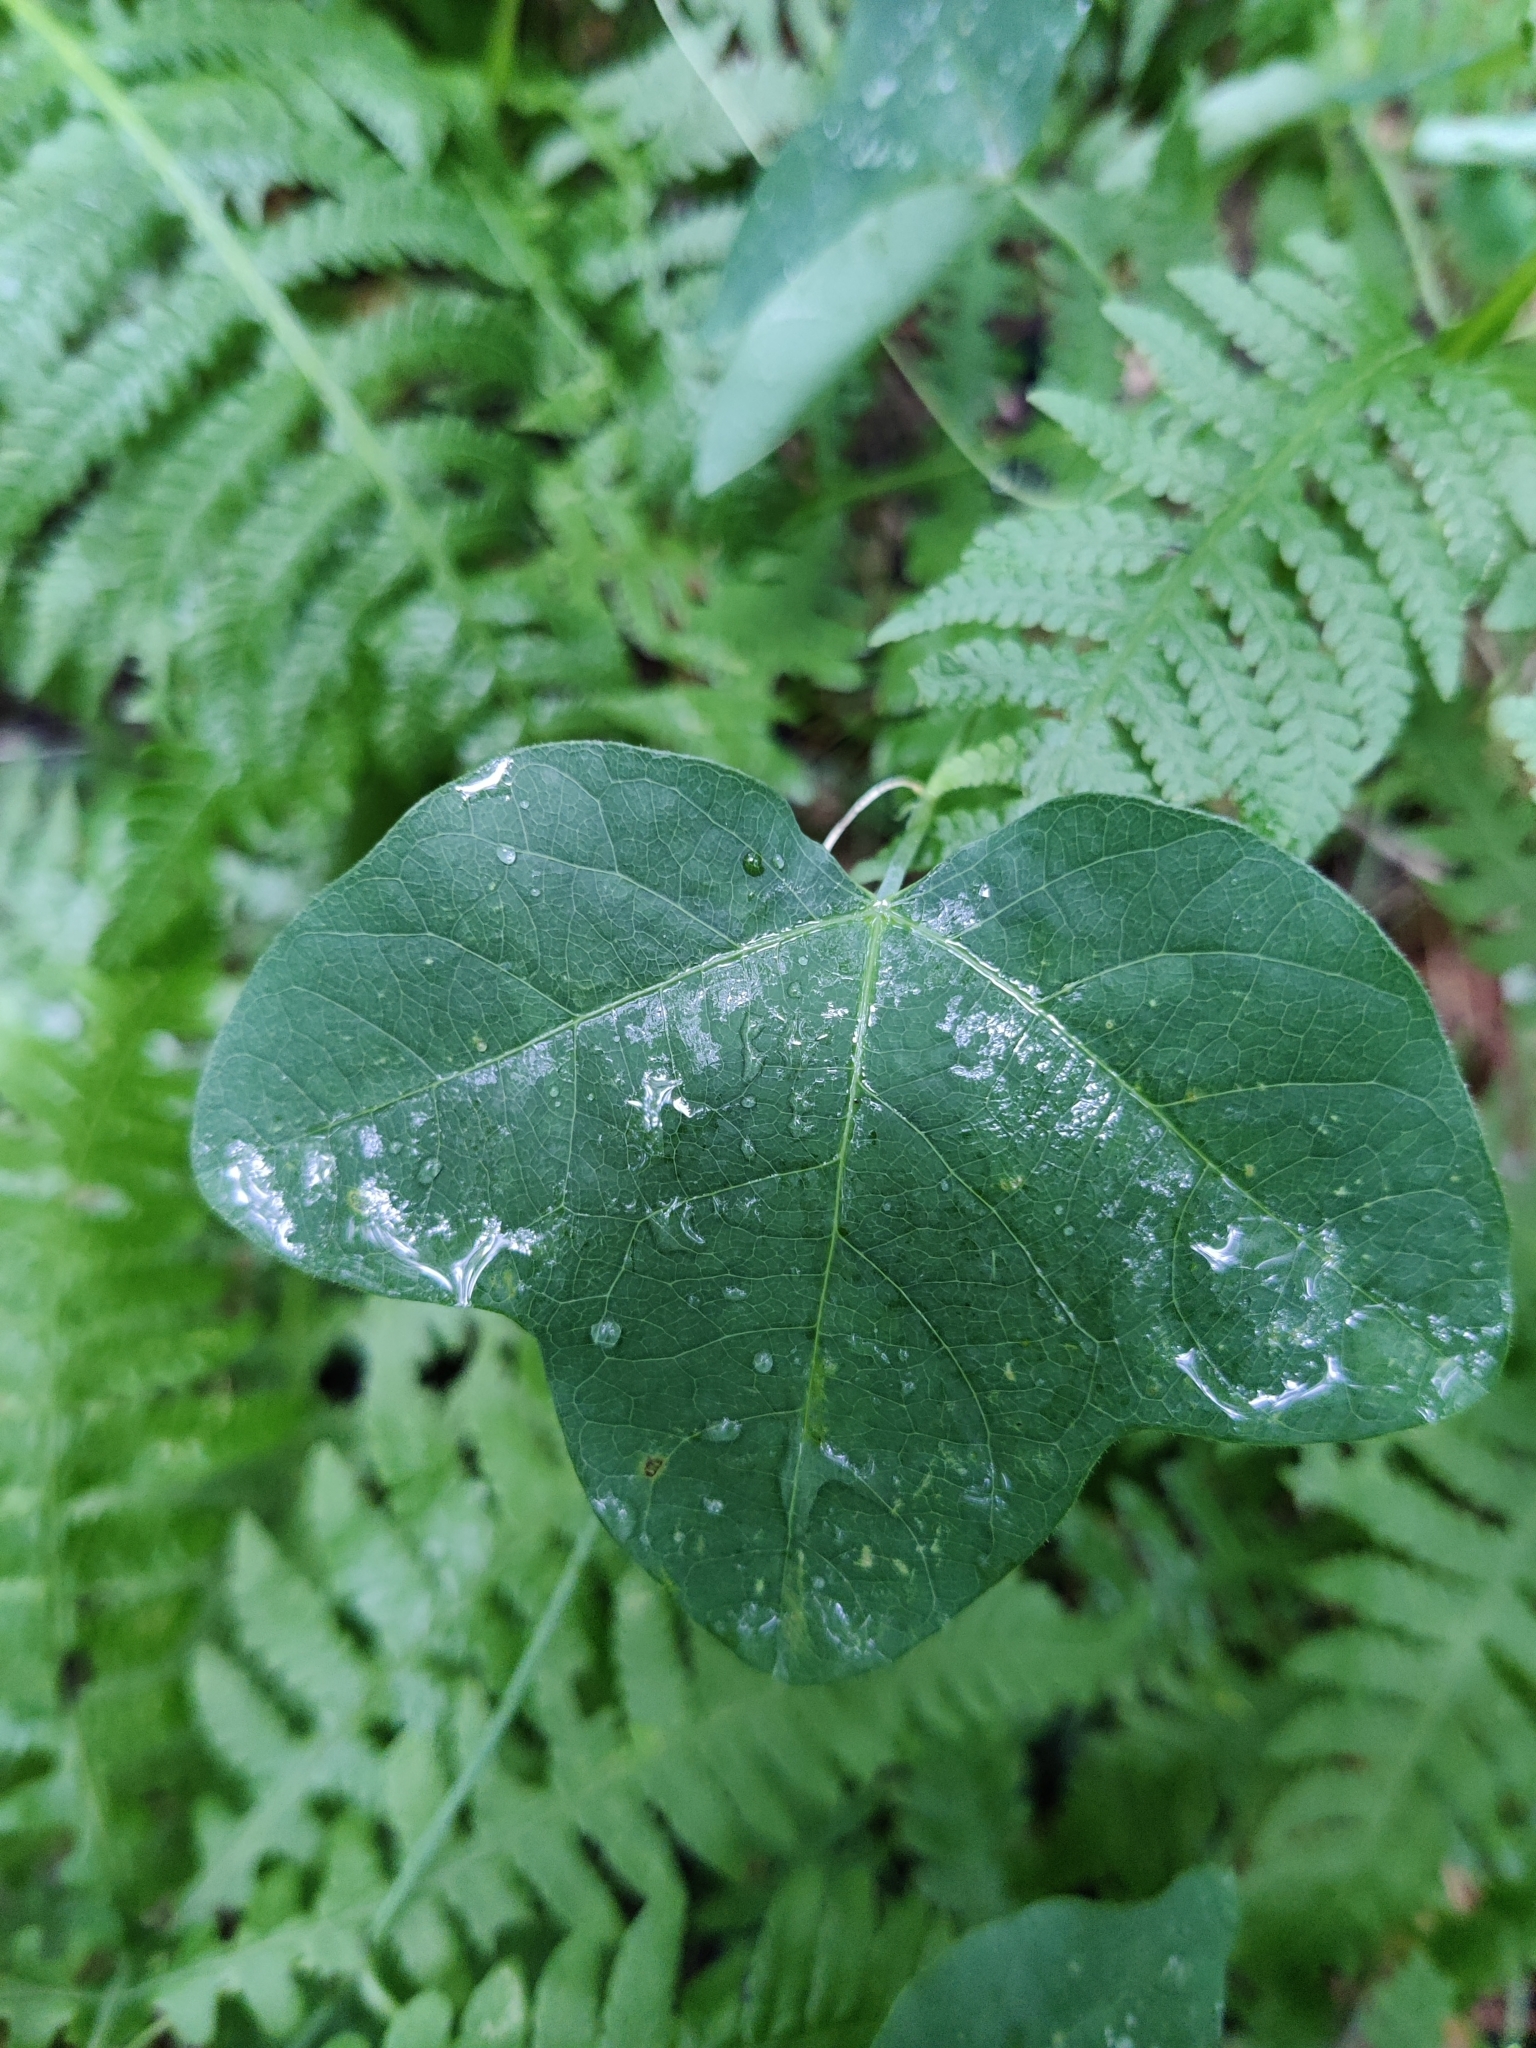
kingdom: Plantae
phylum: Tracheophyta
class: Magnoliopsida
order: Malpighiales
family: Passifloraceae
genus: Passiflora
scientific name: Passiflora lutea
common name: Yellow passionflower
